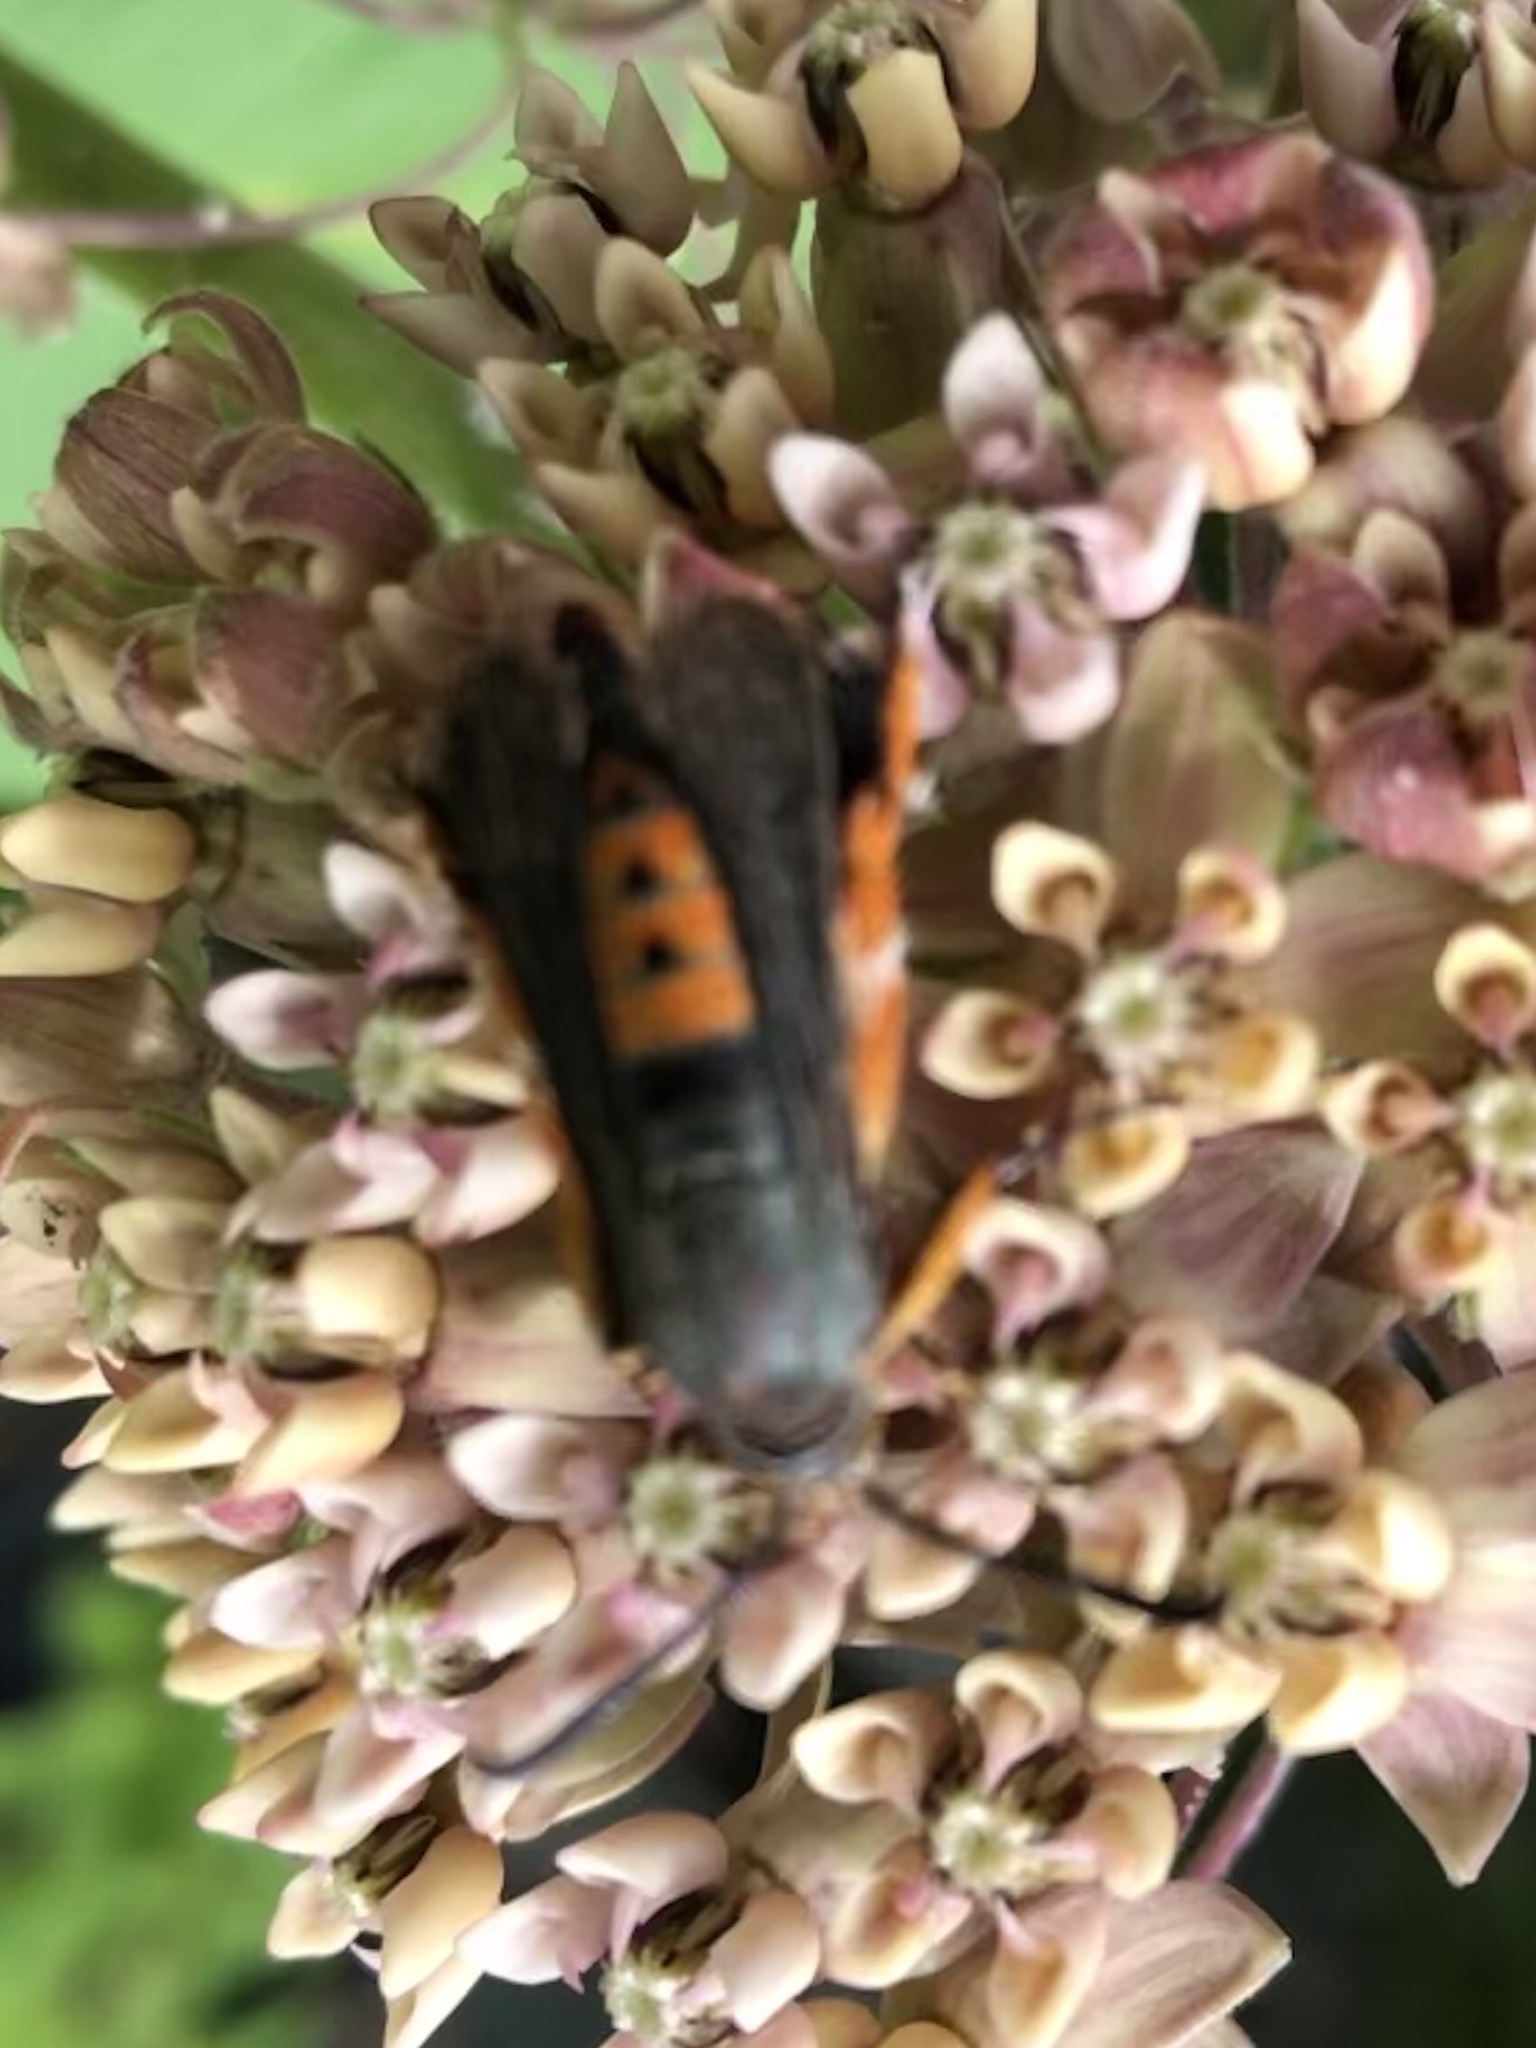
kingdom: Animalia
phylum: Arthropoda
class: Insecta
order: Lepidoptera
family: Sesiidae
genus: Eichlinia
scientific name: Eichlinia cucurbitae
